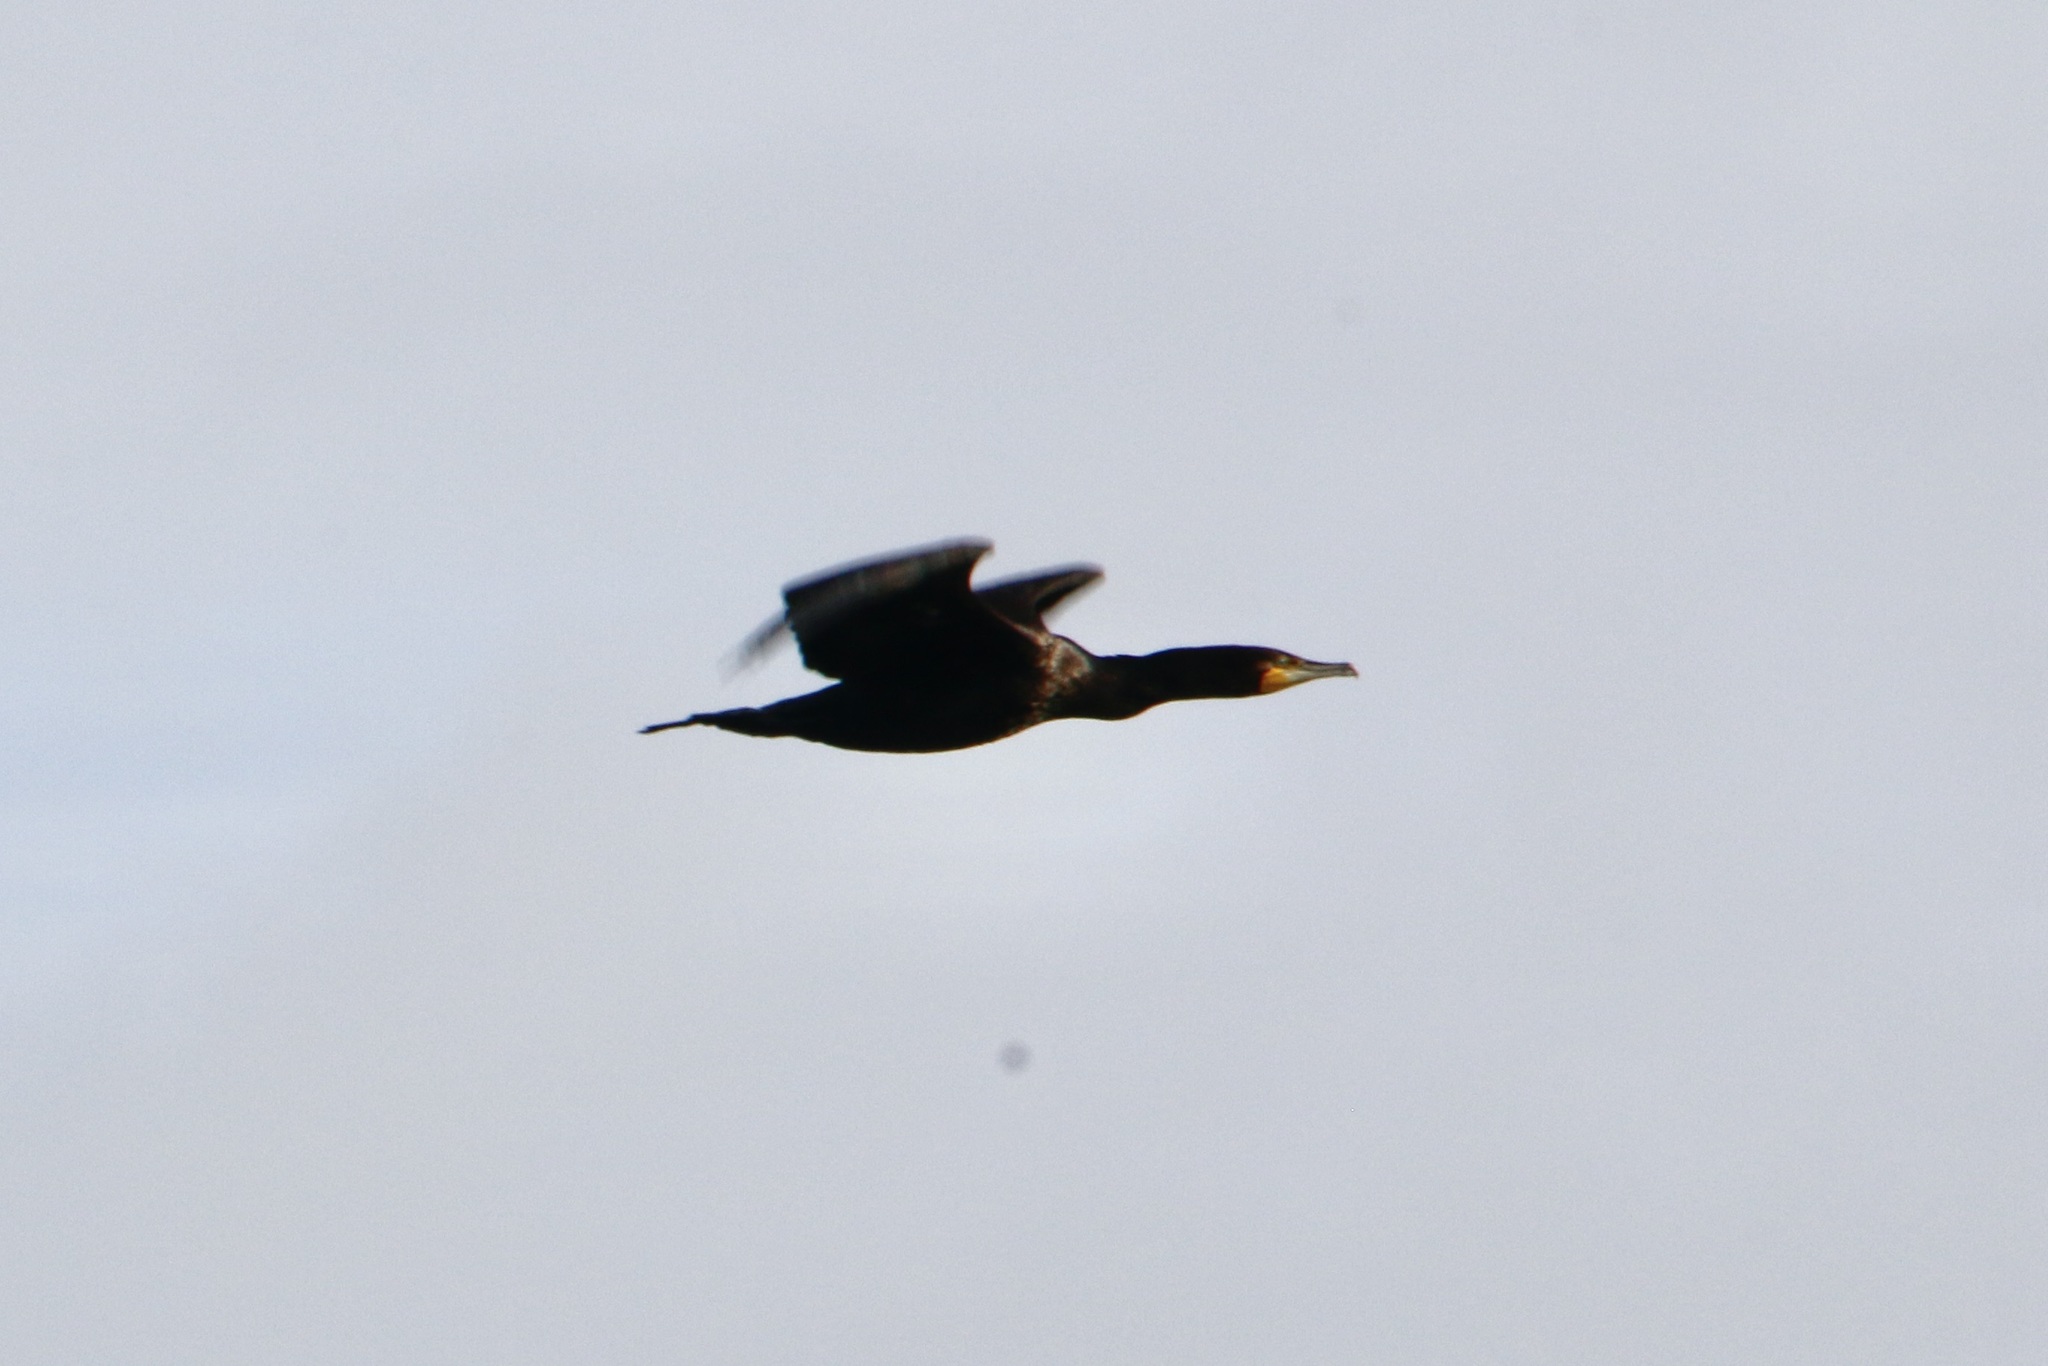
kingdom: Animalia
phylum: Chordata
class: Aves
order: Suliformes
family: Phalacrocoracidae
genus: Phalacrocorax
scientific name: Phalacrocorax carbo
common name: Great cormorant
